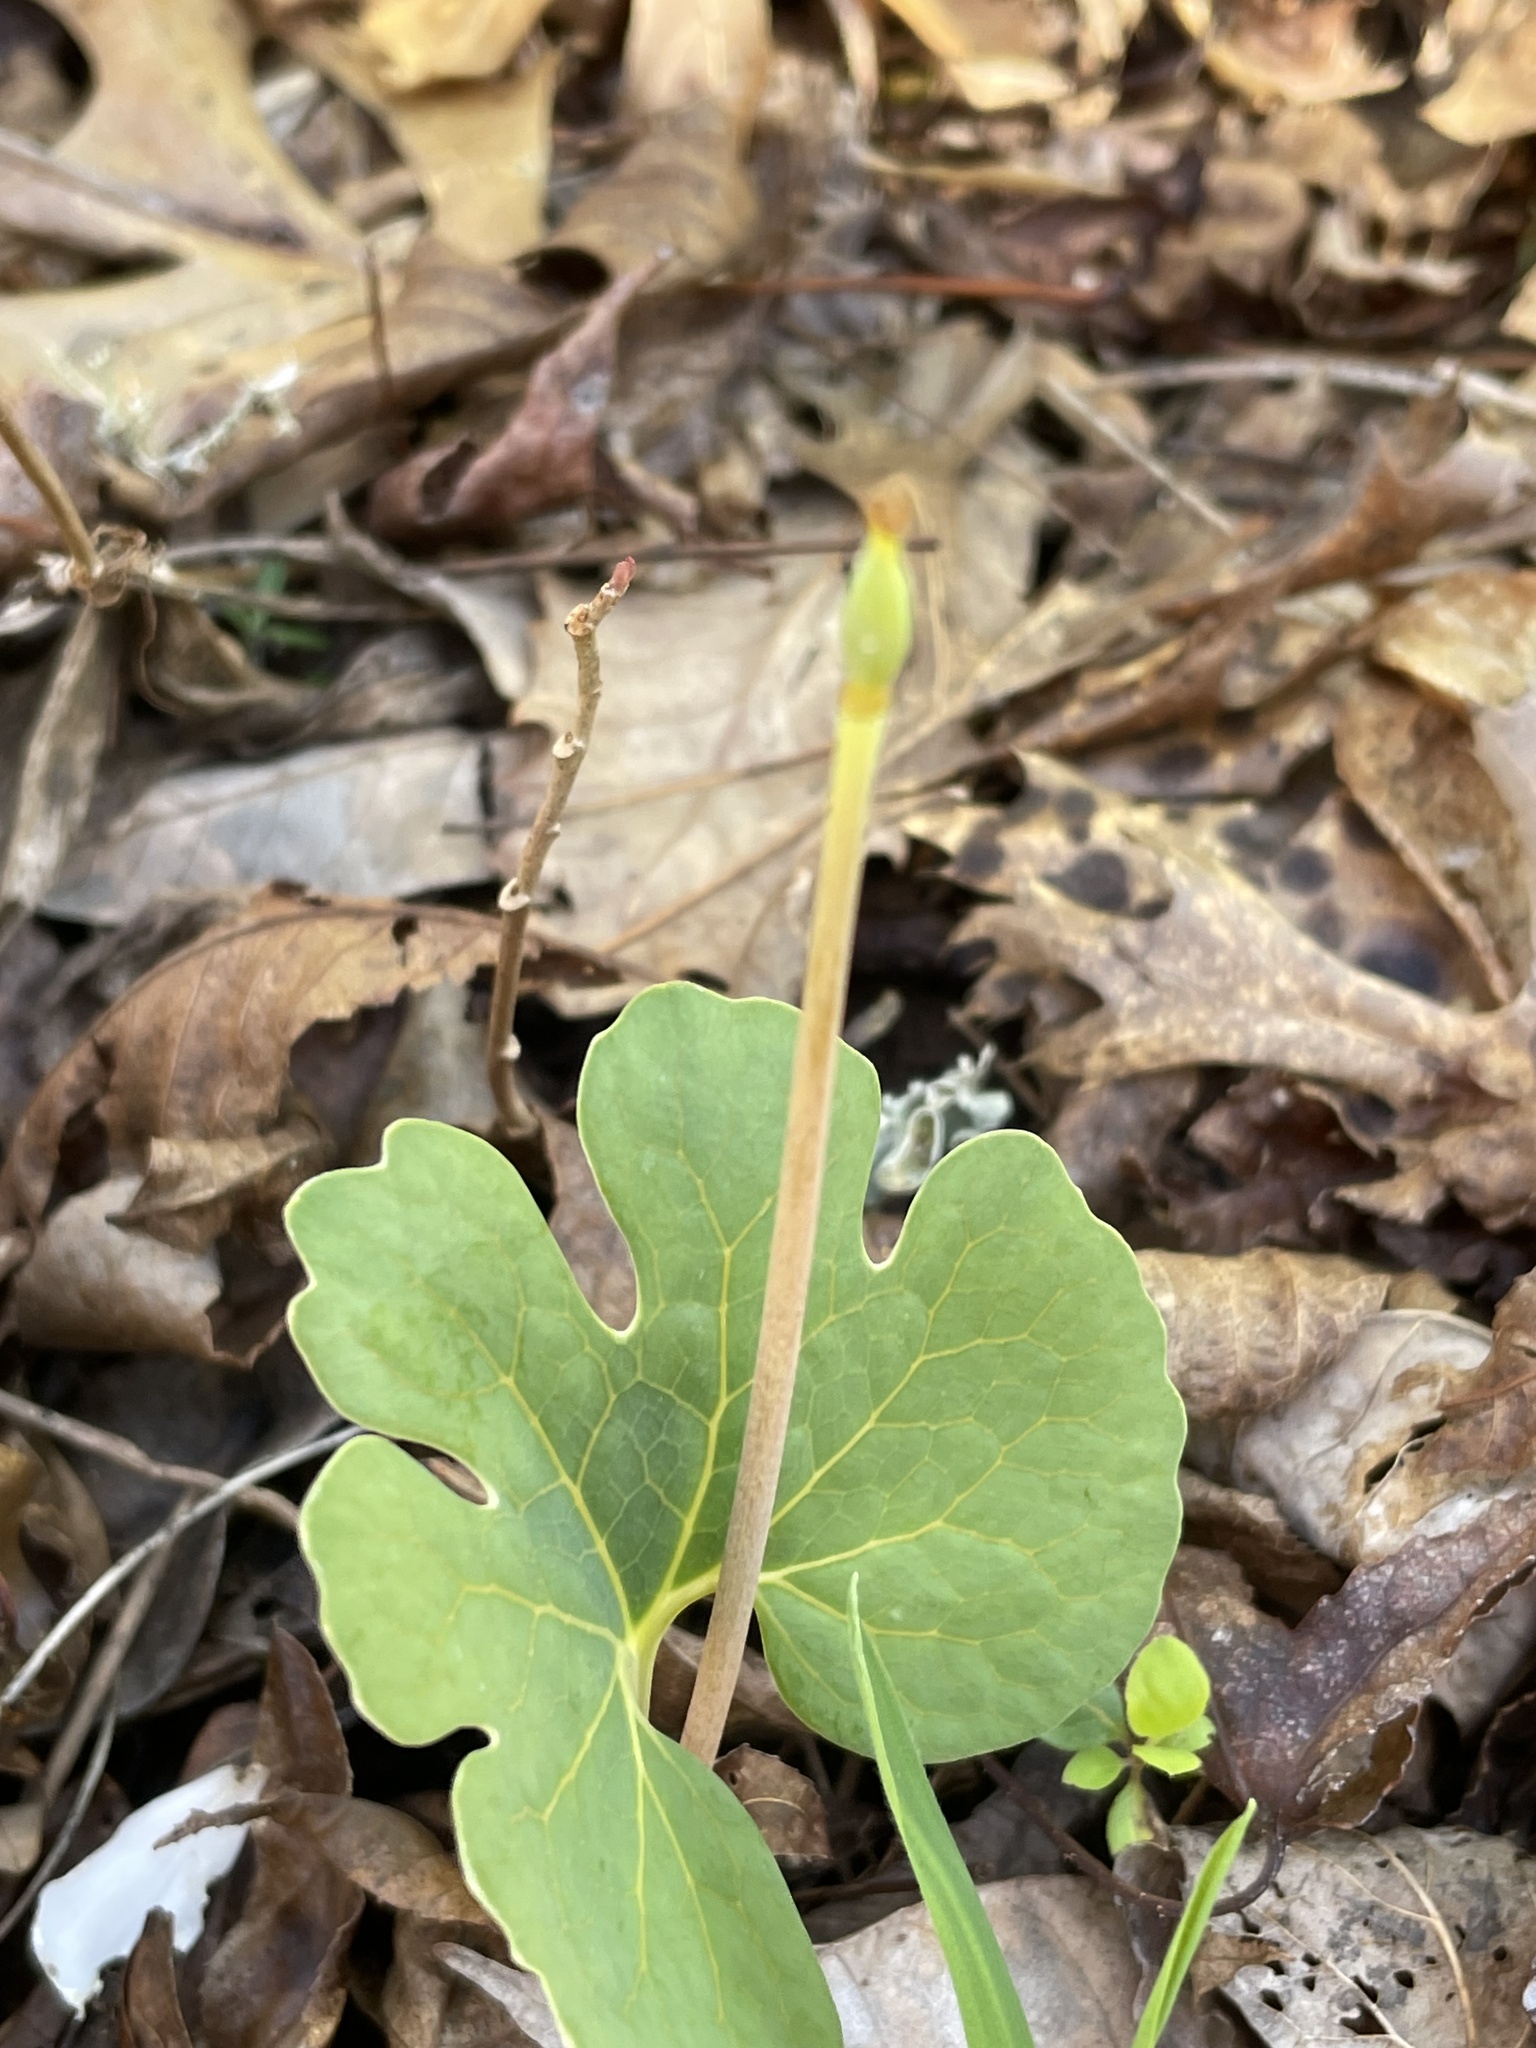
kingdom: Plantae
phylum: Tracheophyta
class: Magnoliopsida
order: Ranunculales
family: Papaveraceae
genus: Sanguinaria
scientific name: Sanguinaria canadensis
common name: Bloodroot
